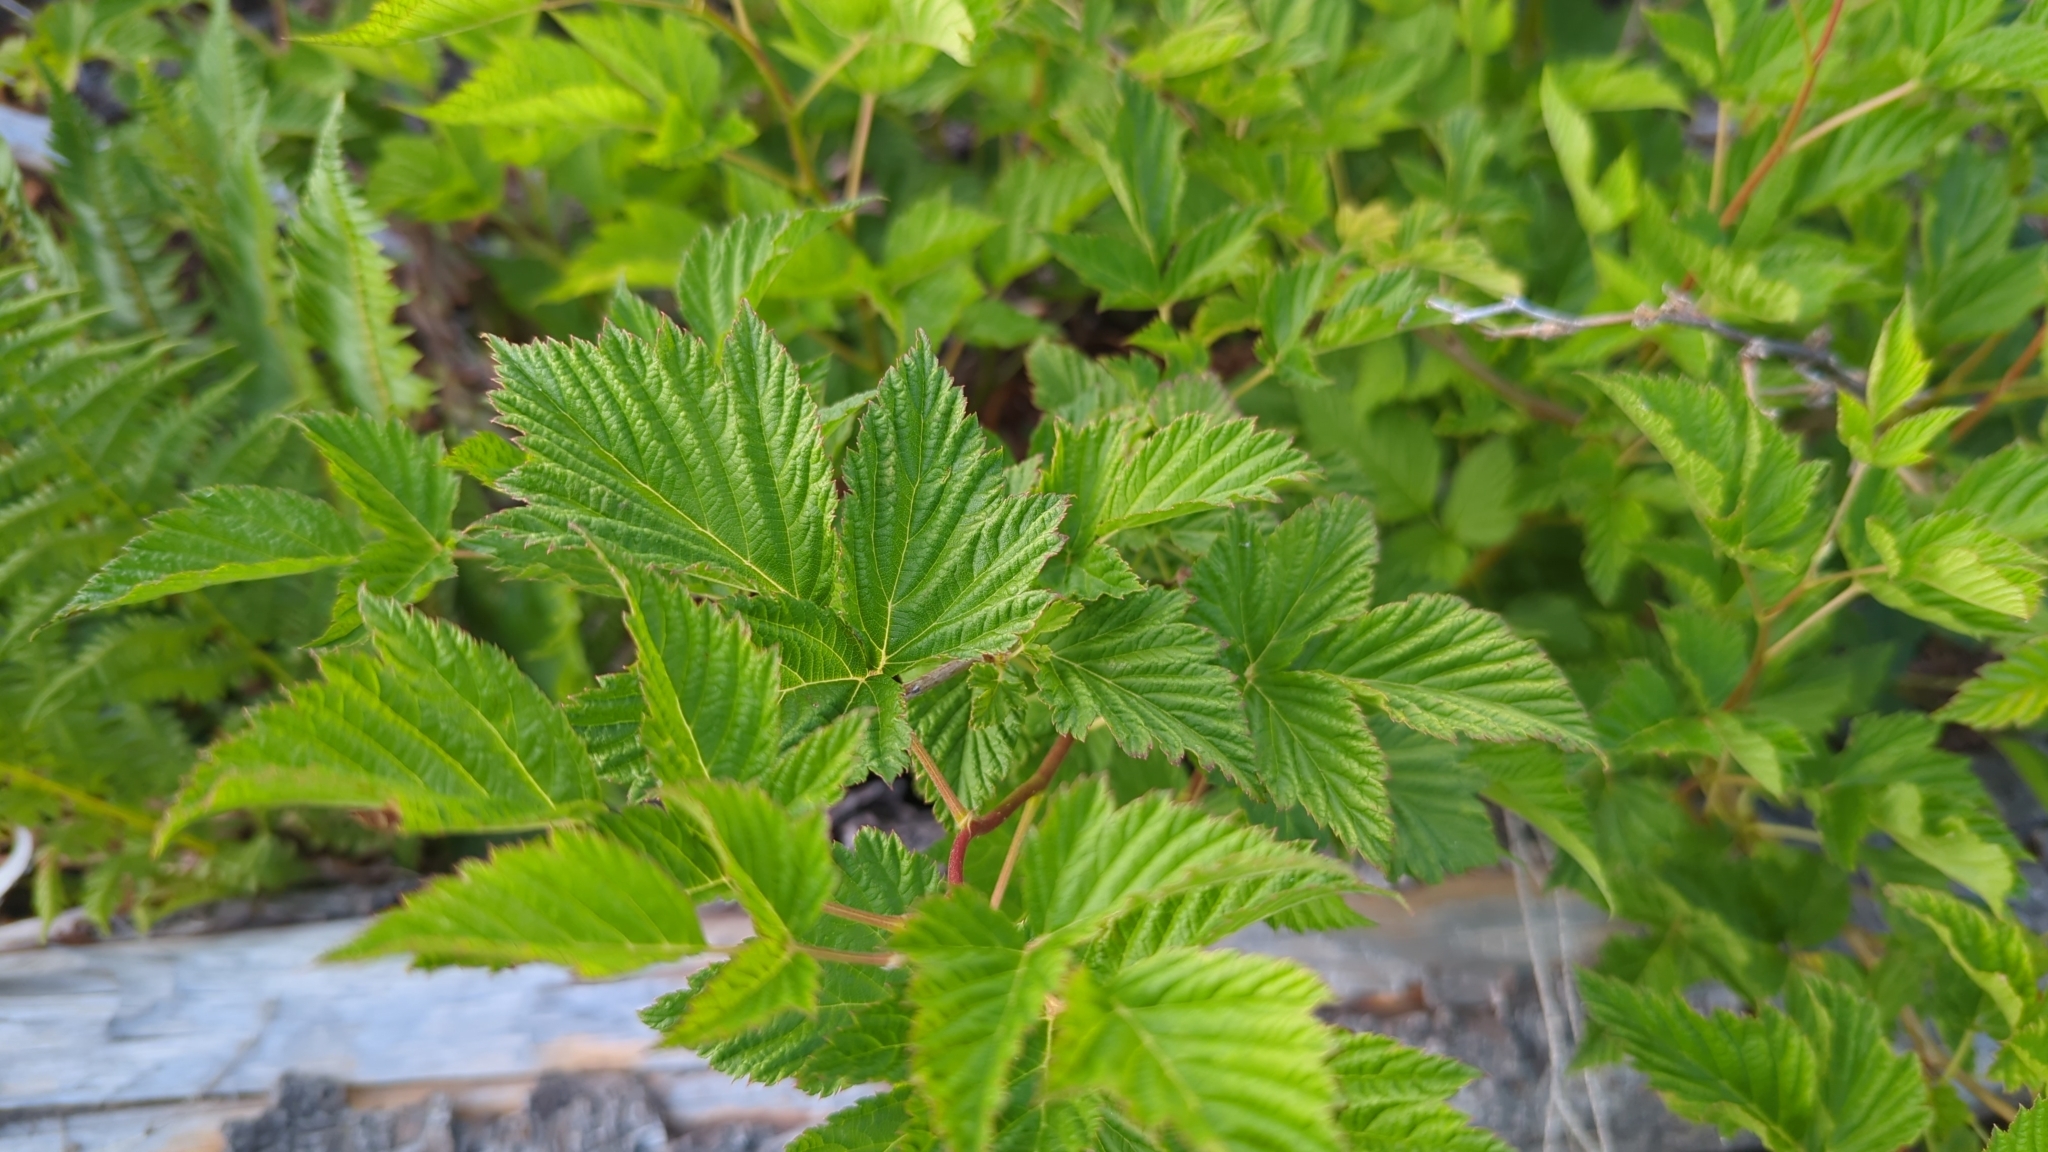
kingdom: Plantae
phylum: Tracheophyta
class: Magnoliopsida
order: Rosales
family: Rosaceae
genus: Rubus
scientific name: Rubus spectabilis
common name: Salmonberry
